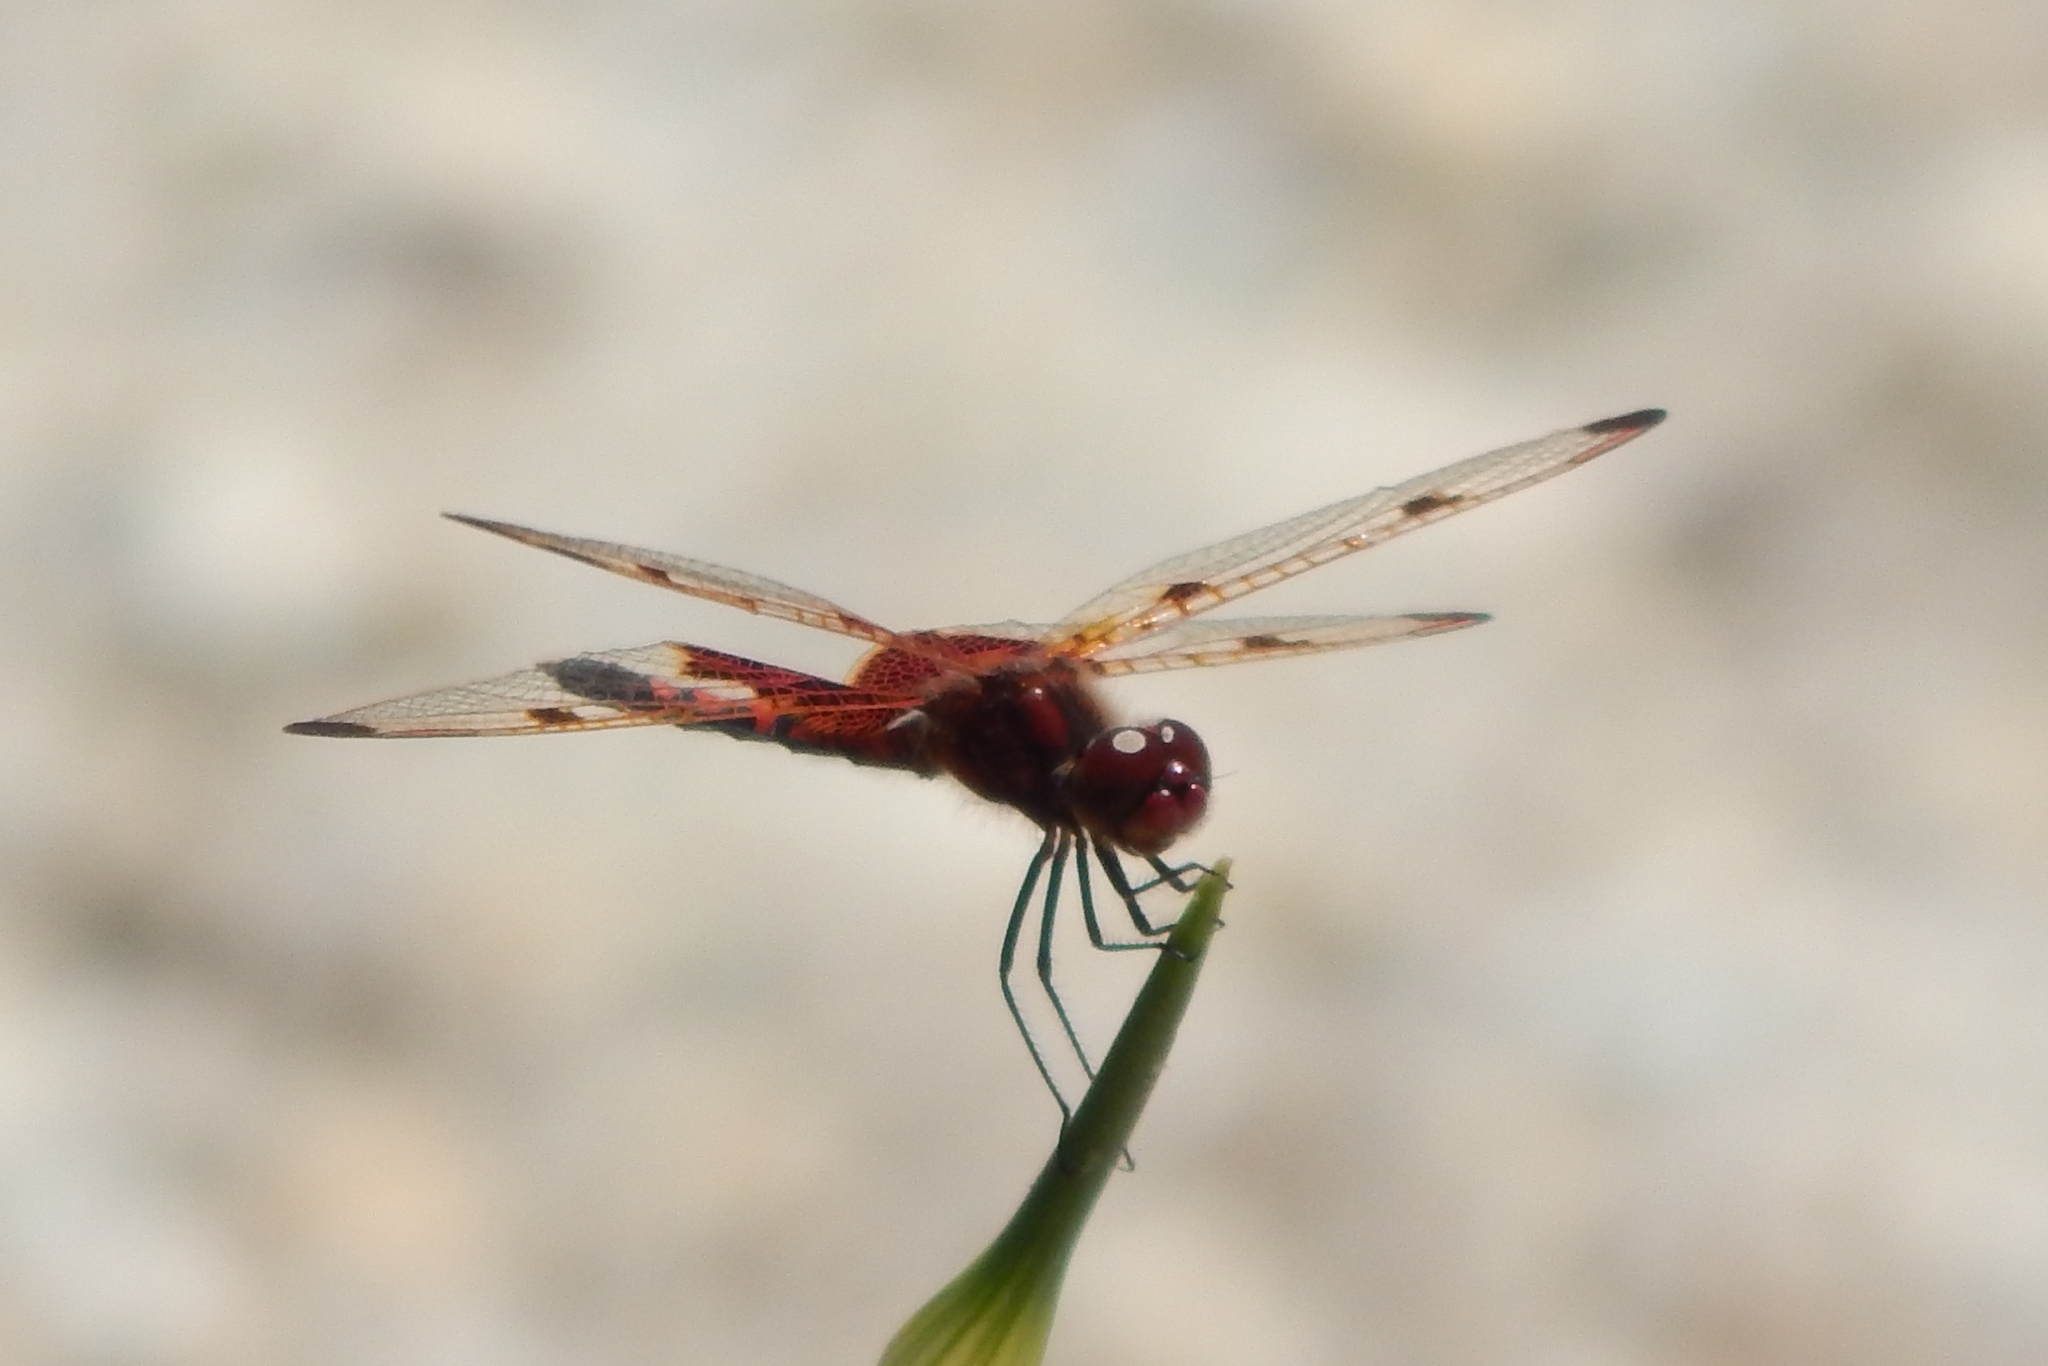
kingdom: Animalia
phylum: Arthropoda
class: Insecta
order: Odonata
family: Libellulidae
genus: Celithemis
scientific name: Celithemis elisa
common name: Calico pennant
